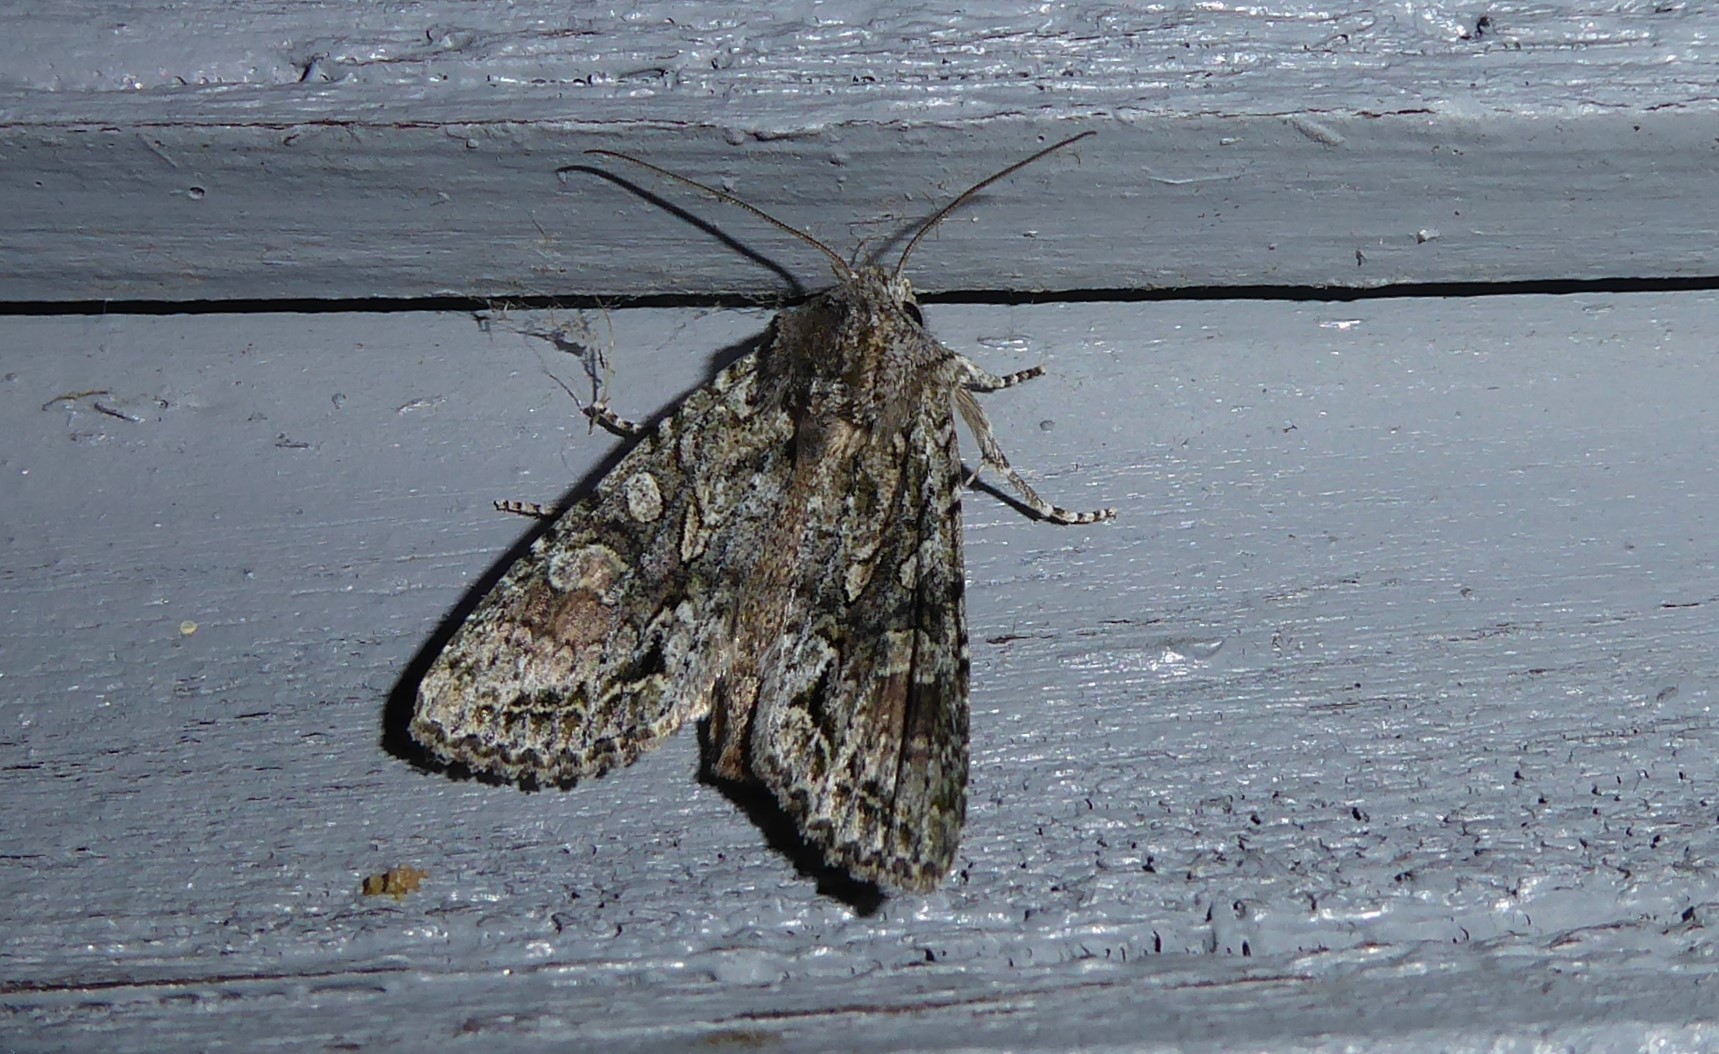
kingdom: Animalia
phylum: Arthropoda
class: Insecta
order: Lepidoptera
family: Noctuidae
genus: Ichneutica
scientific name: Ichneutica mutans
